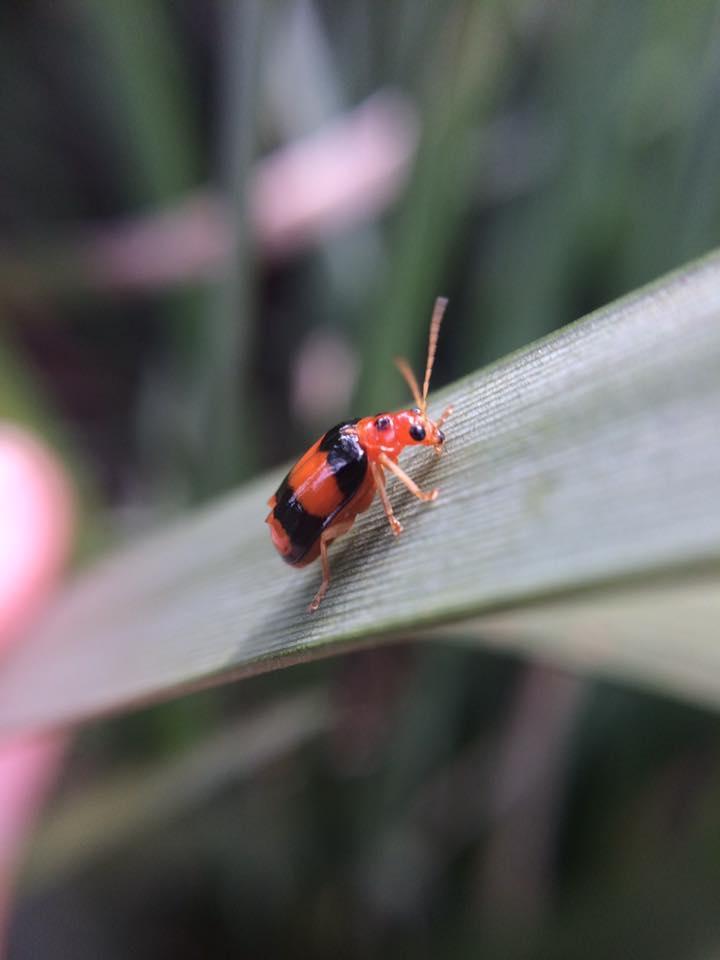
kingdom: Animalia
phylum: Arthropoda
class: Insecta
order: Coleoptera
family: Chrysomelidae
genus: Diacantha
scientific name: Diacantha
